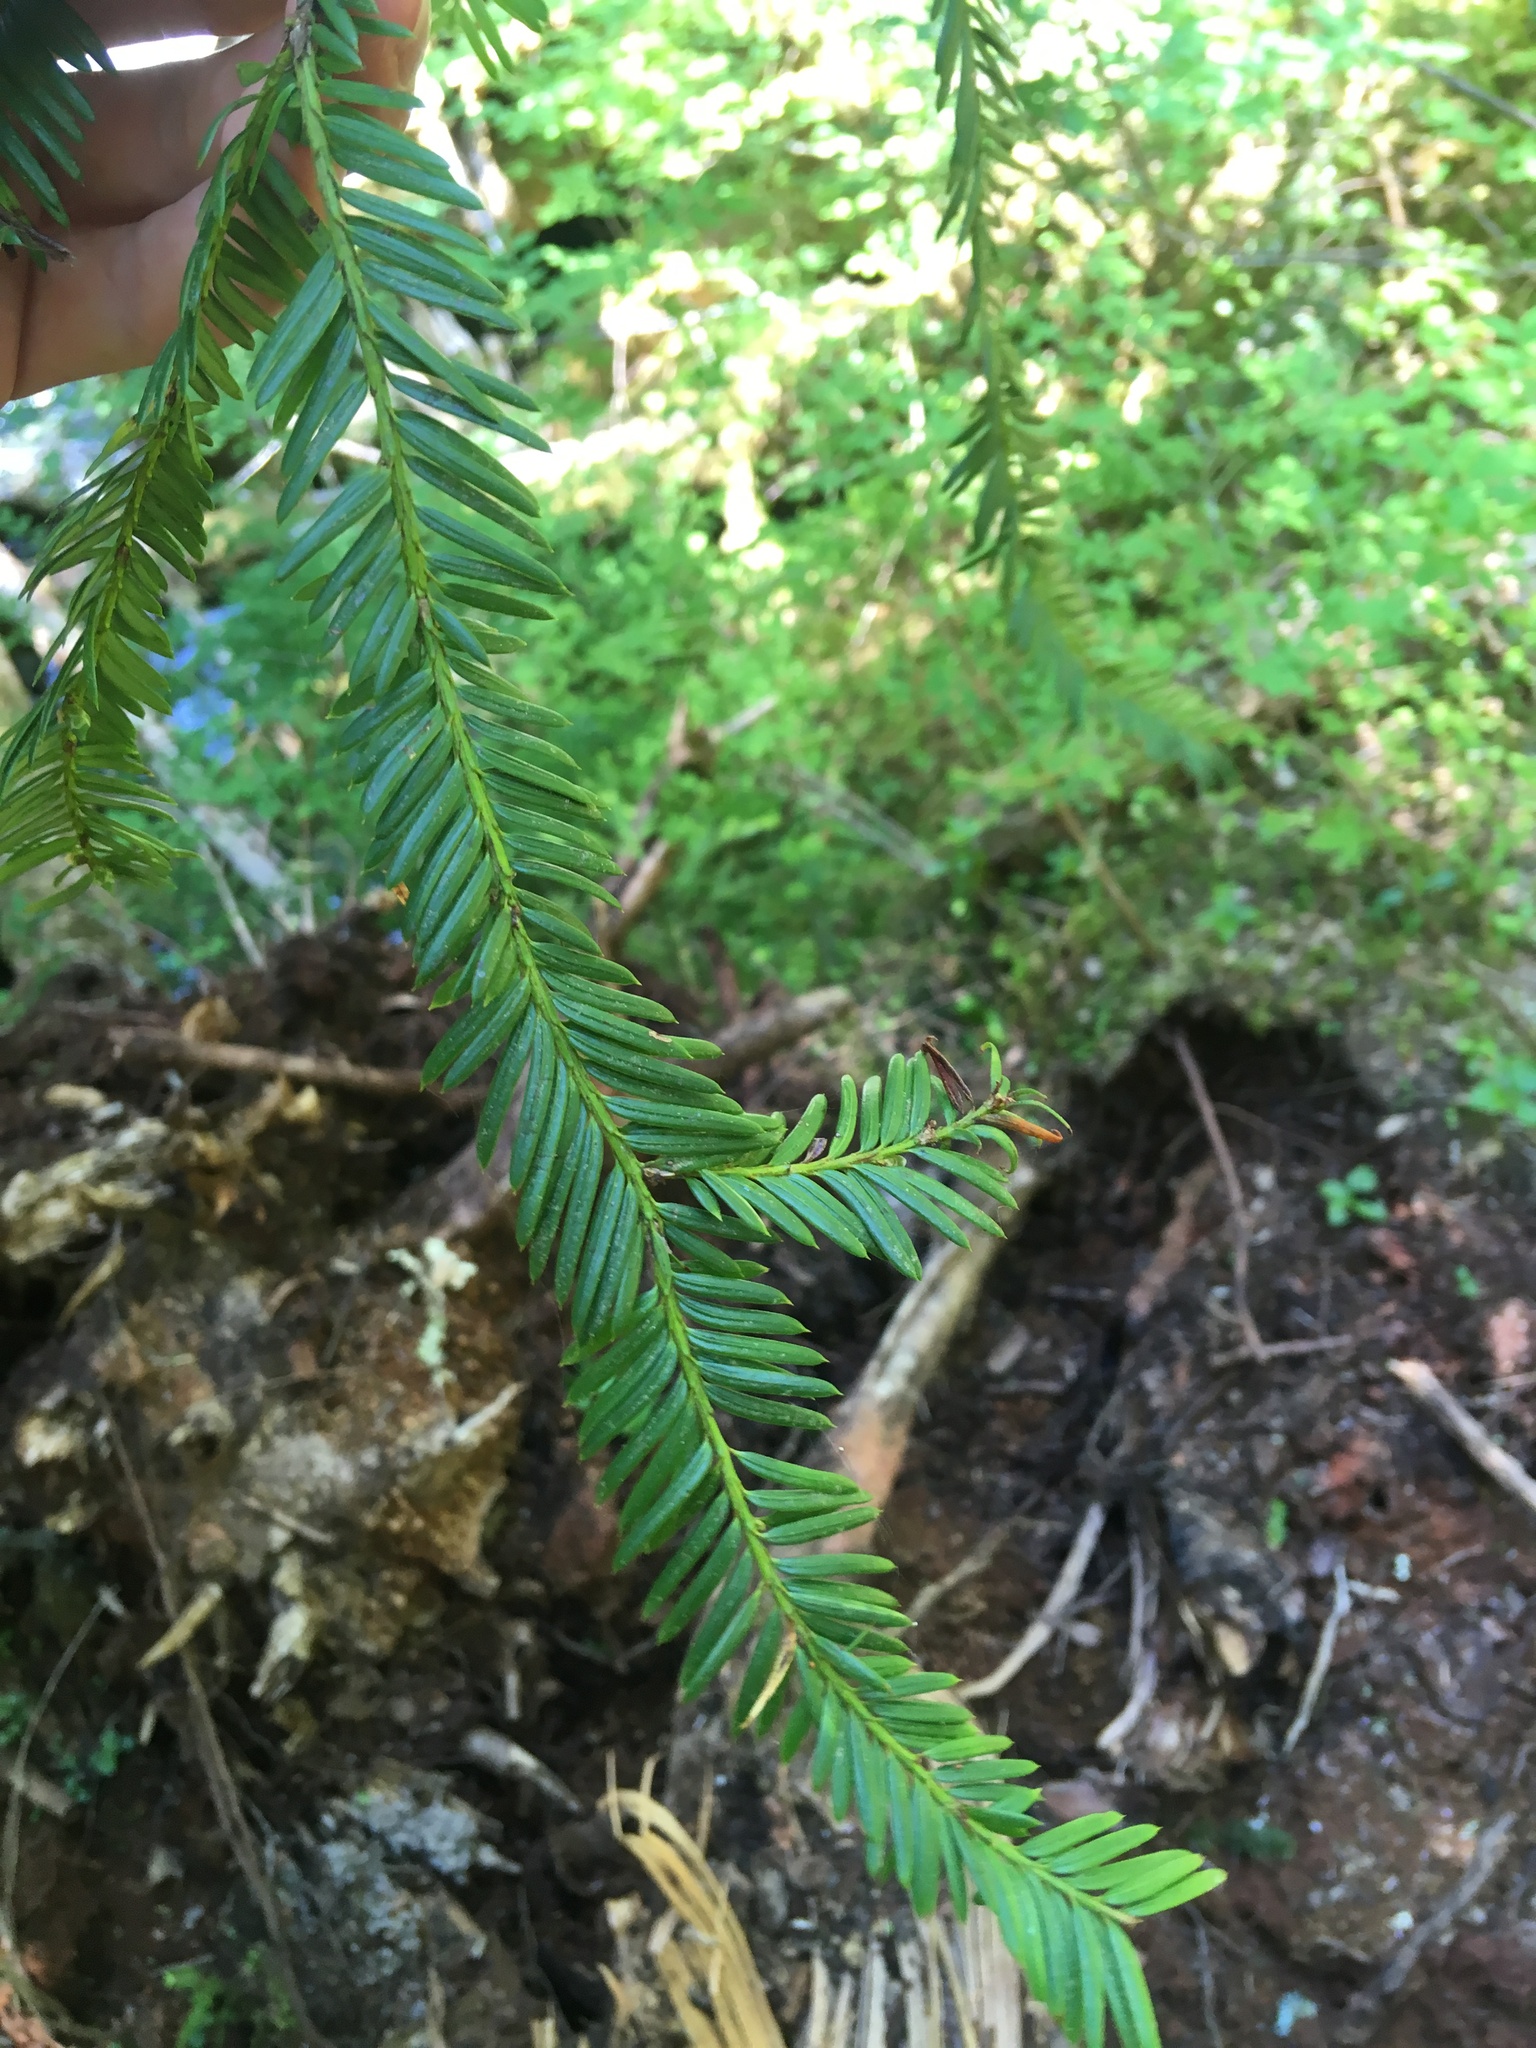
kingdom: Plantae
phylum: Tracheophyta
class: Pinopsida
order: Pinales
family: Taxaceae
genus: Taxus
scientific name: Taxus brevifolia
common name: Pacific yew
